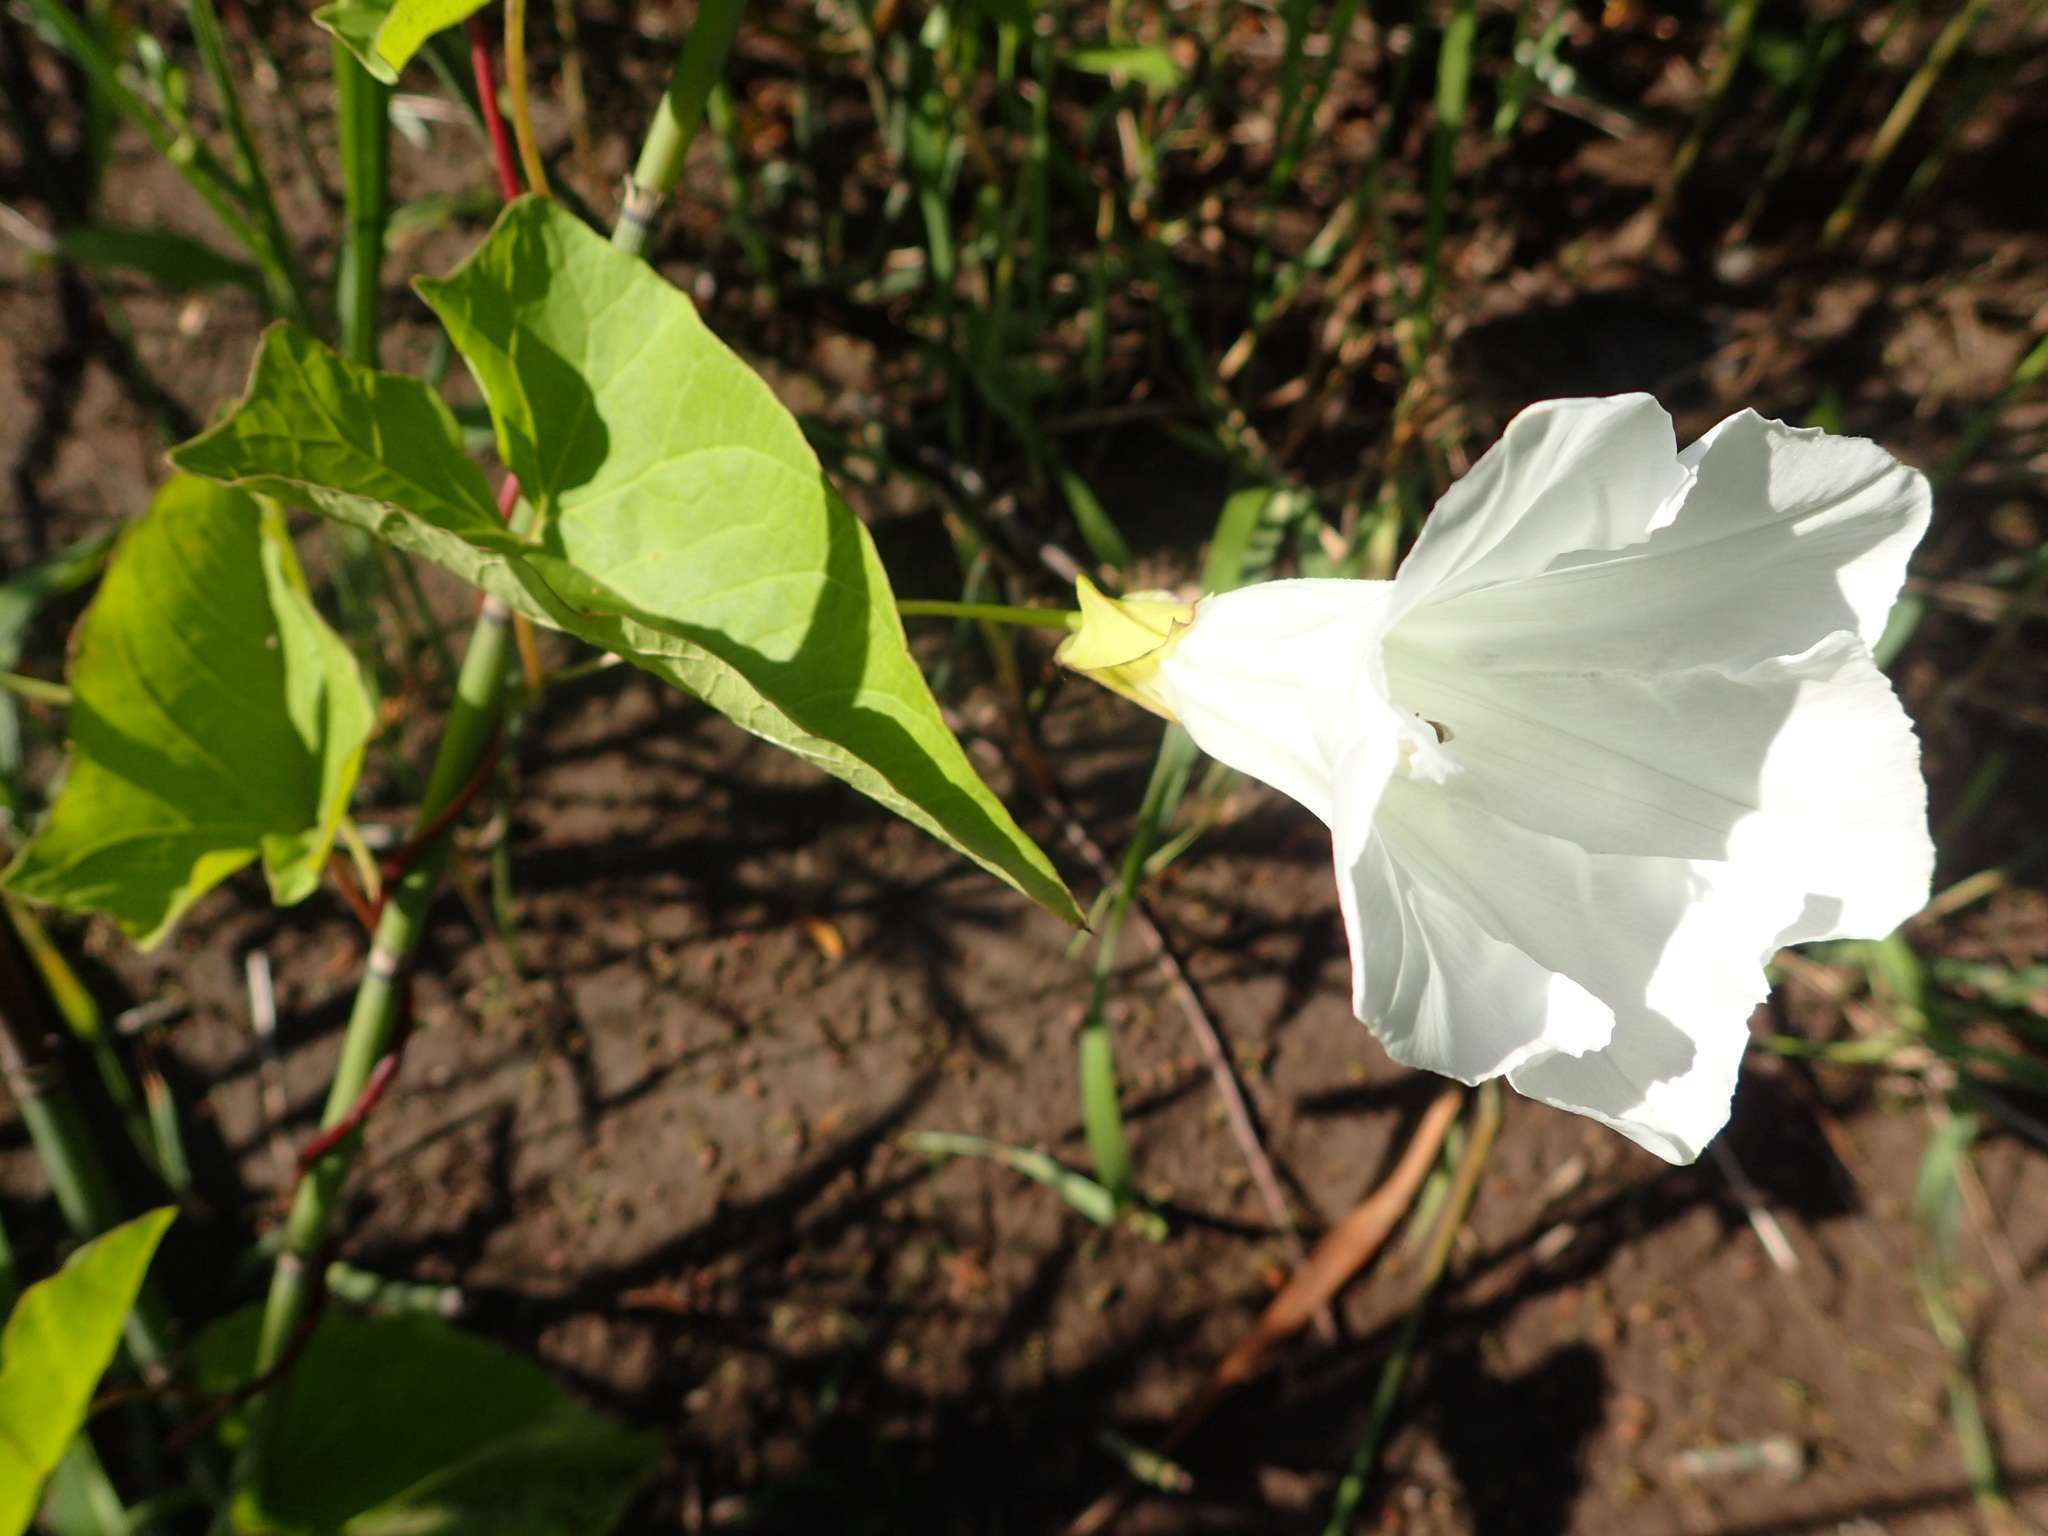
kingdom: Plantae
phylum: Tracheophyta
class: Magnoliopsida
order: Solanales
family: Convolvulaceae
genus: Calystegia
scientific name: Calystegia sepium
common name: Hedge bindweed
